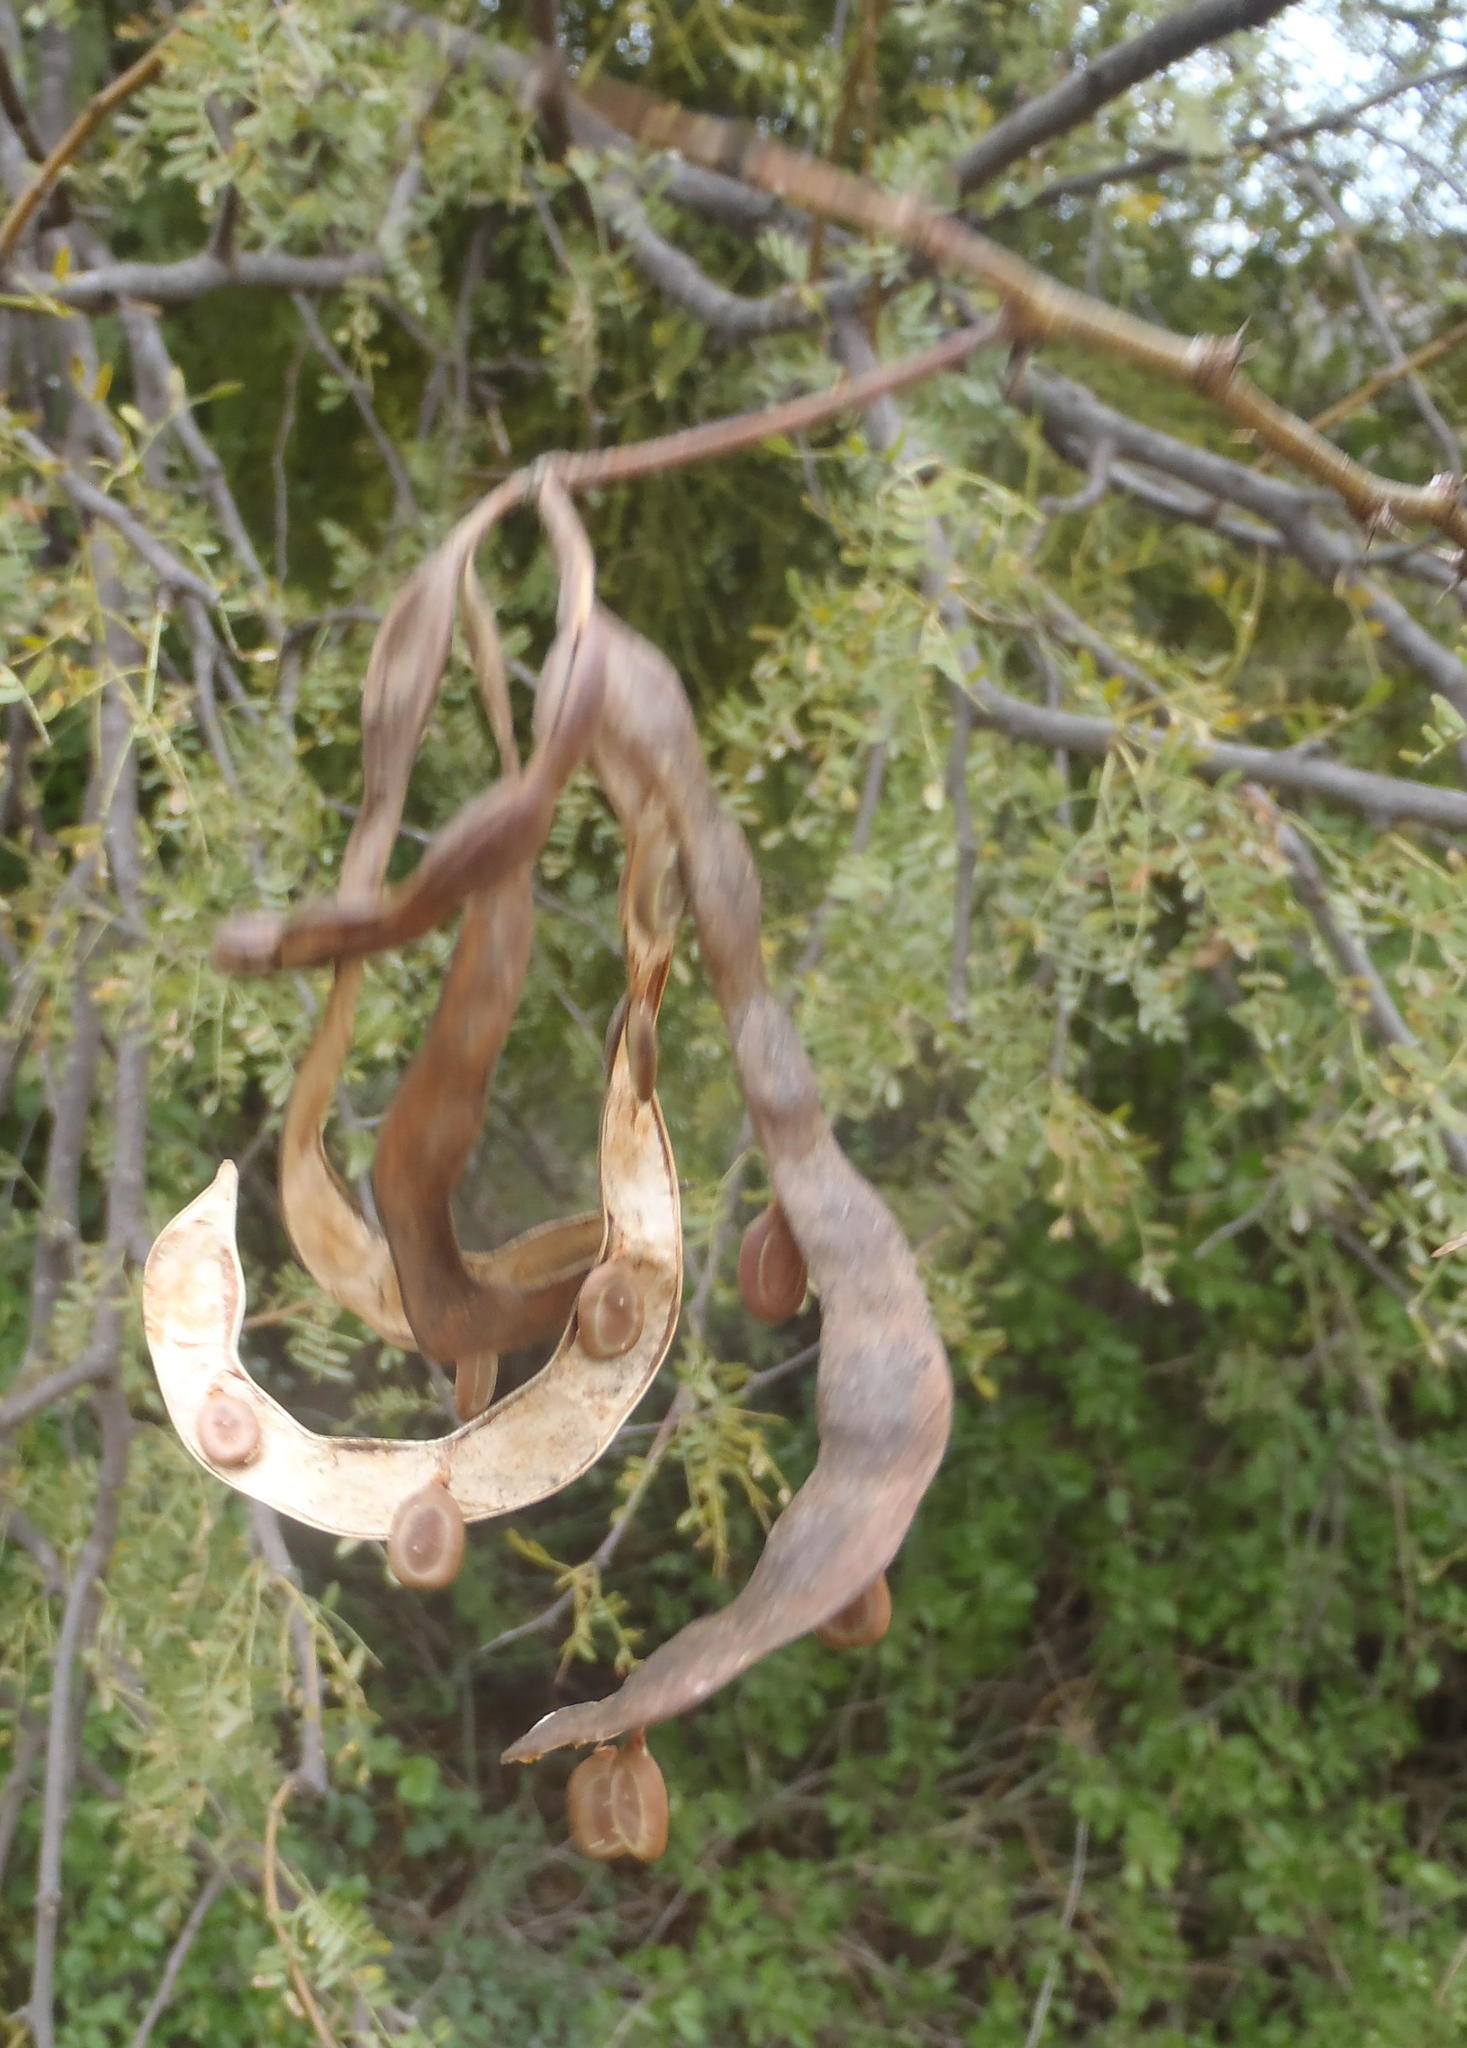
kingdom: Plantae
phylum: Tracheophyta
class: Magnoliopsida
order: Fabales
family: Fabaceae
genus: Vachellia
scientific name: Vachellia karroo
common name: Sweet thorn
